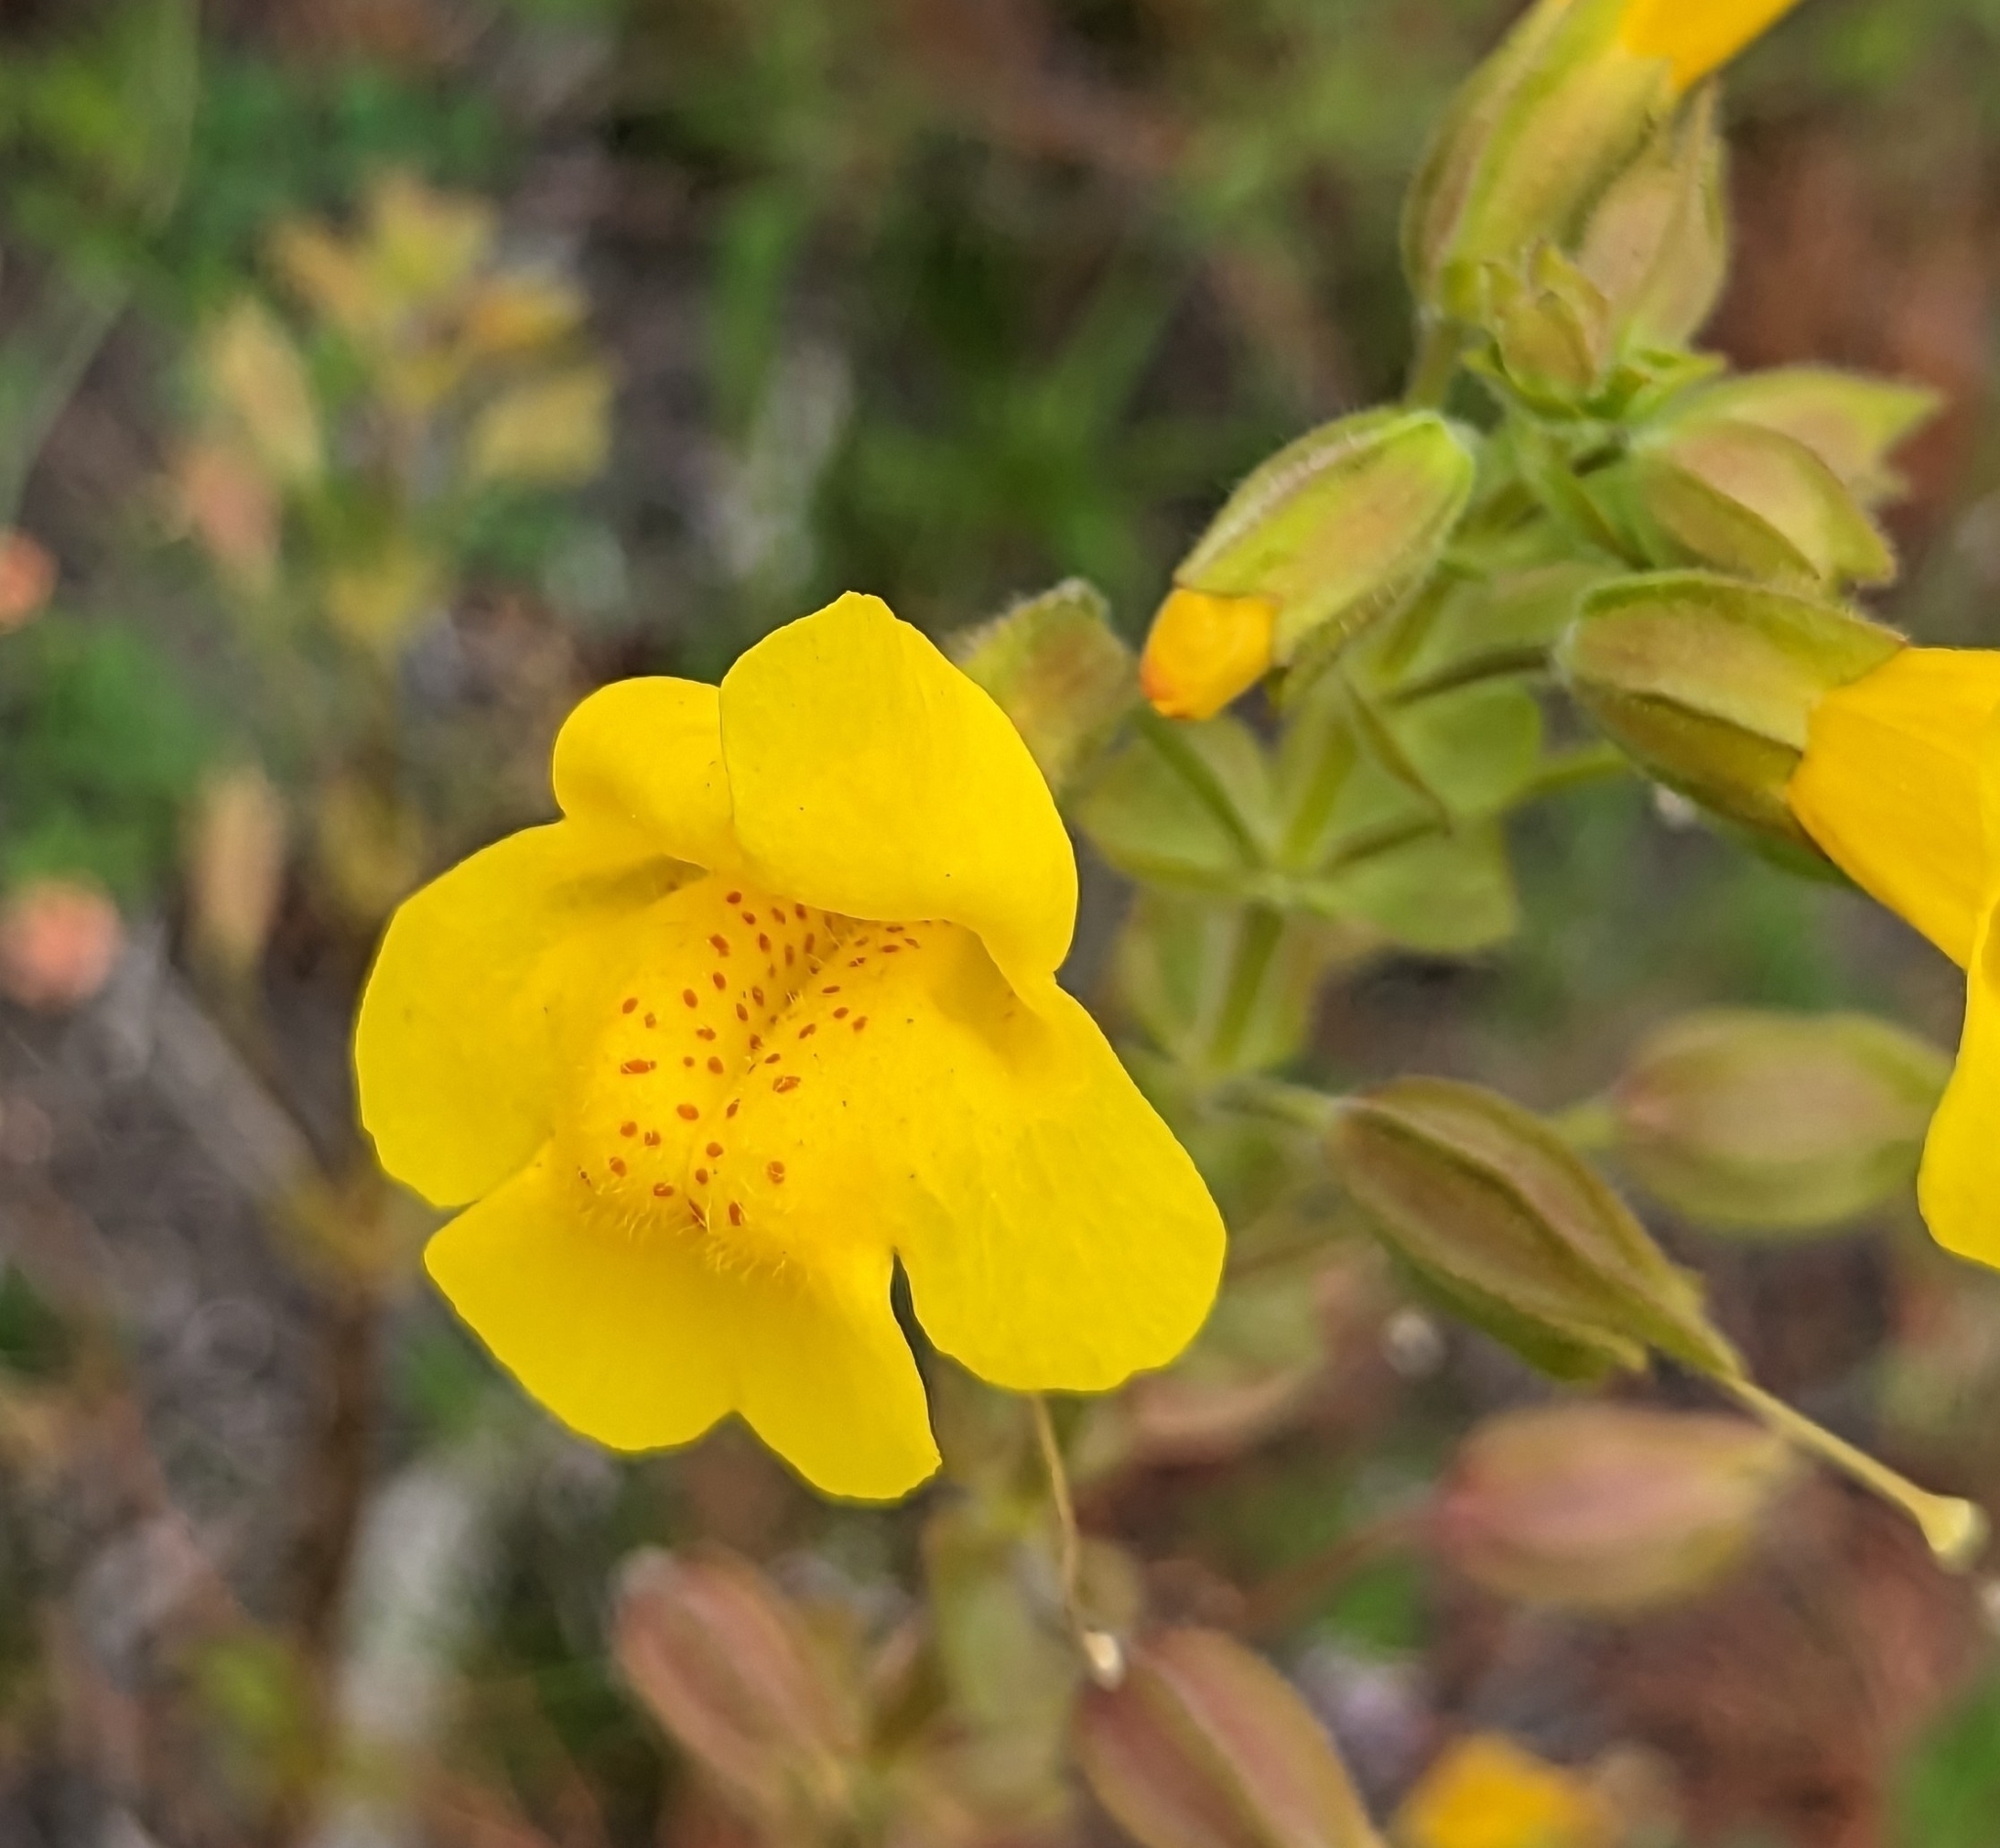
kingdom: Plantae
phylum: Tracheophyta
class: Magnoliopsida
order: Lamiales
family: Phrymaceae
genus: Erythranthe
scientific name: Erythranthe guttata
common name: Monkeyflower
